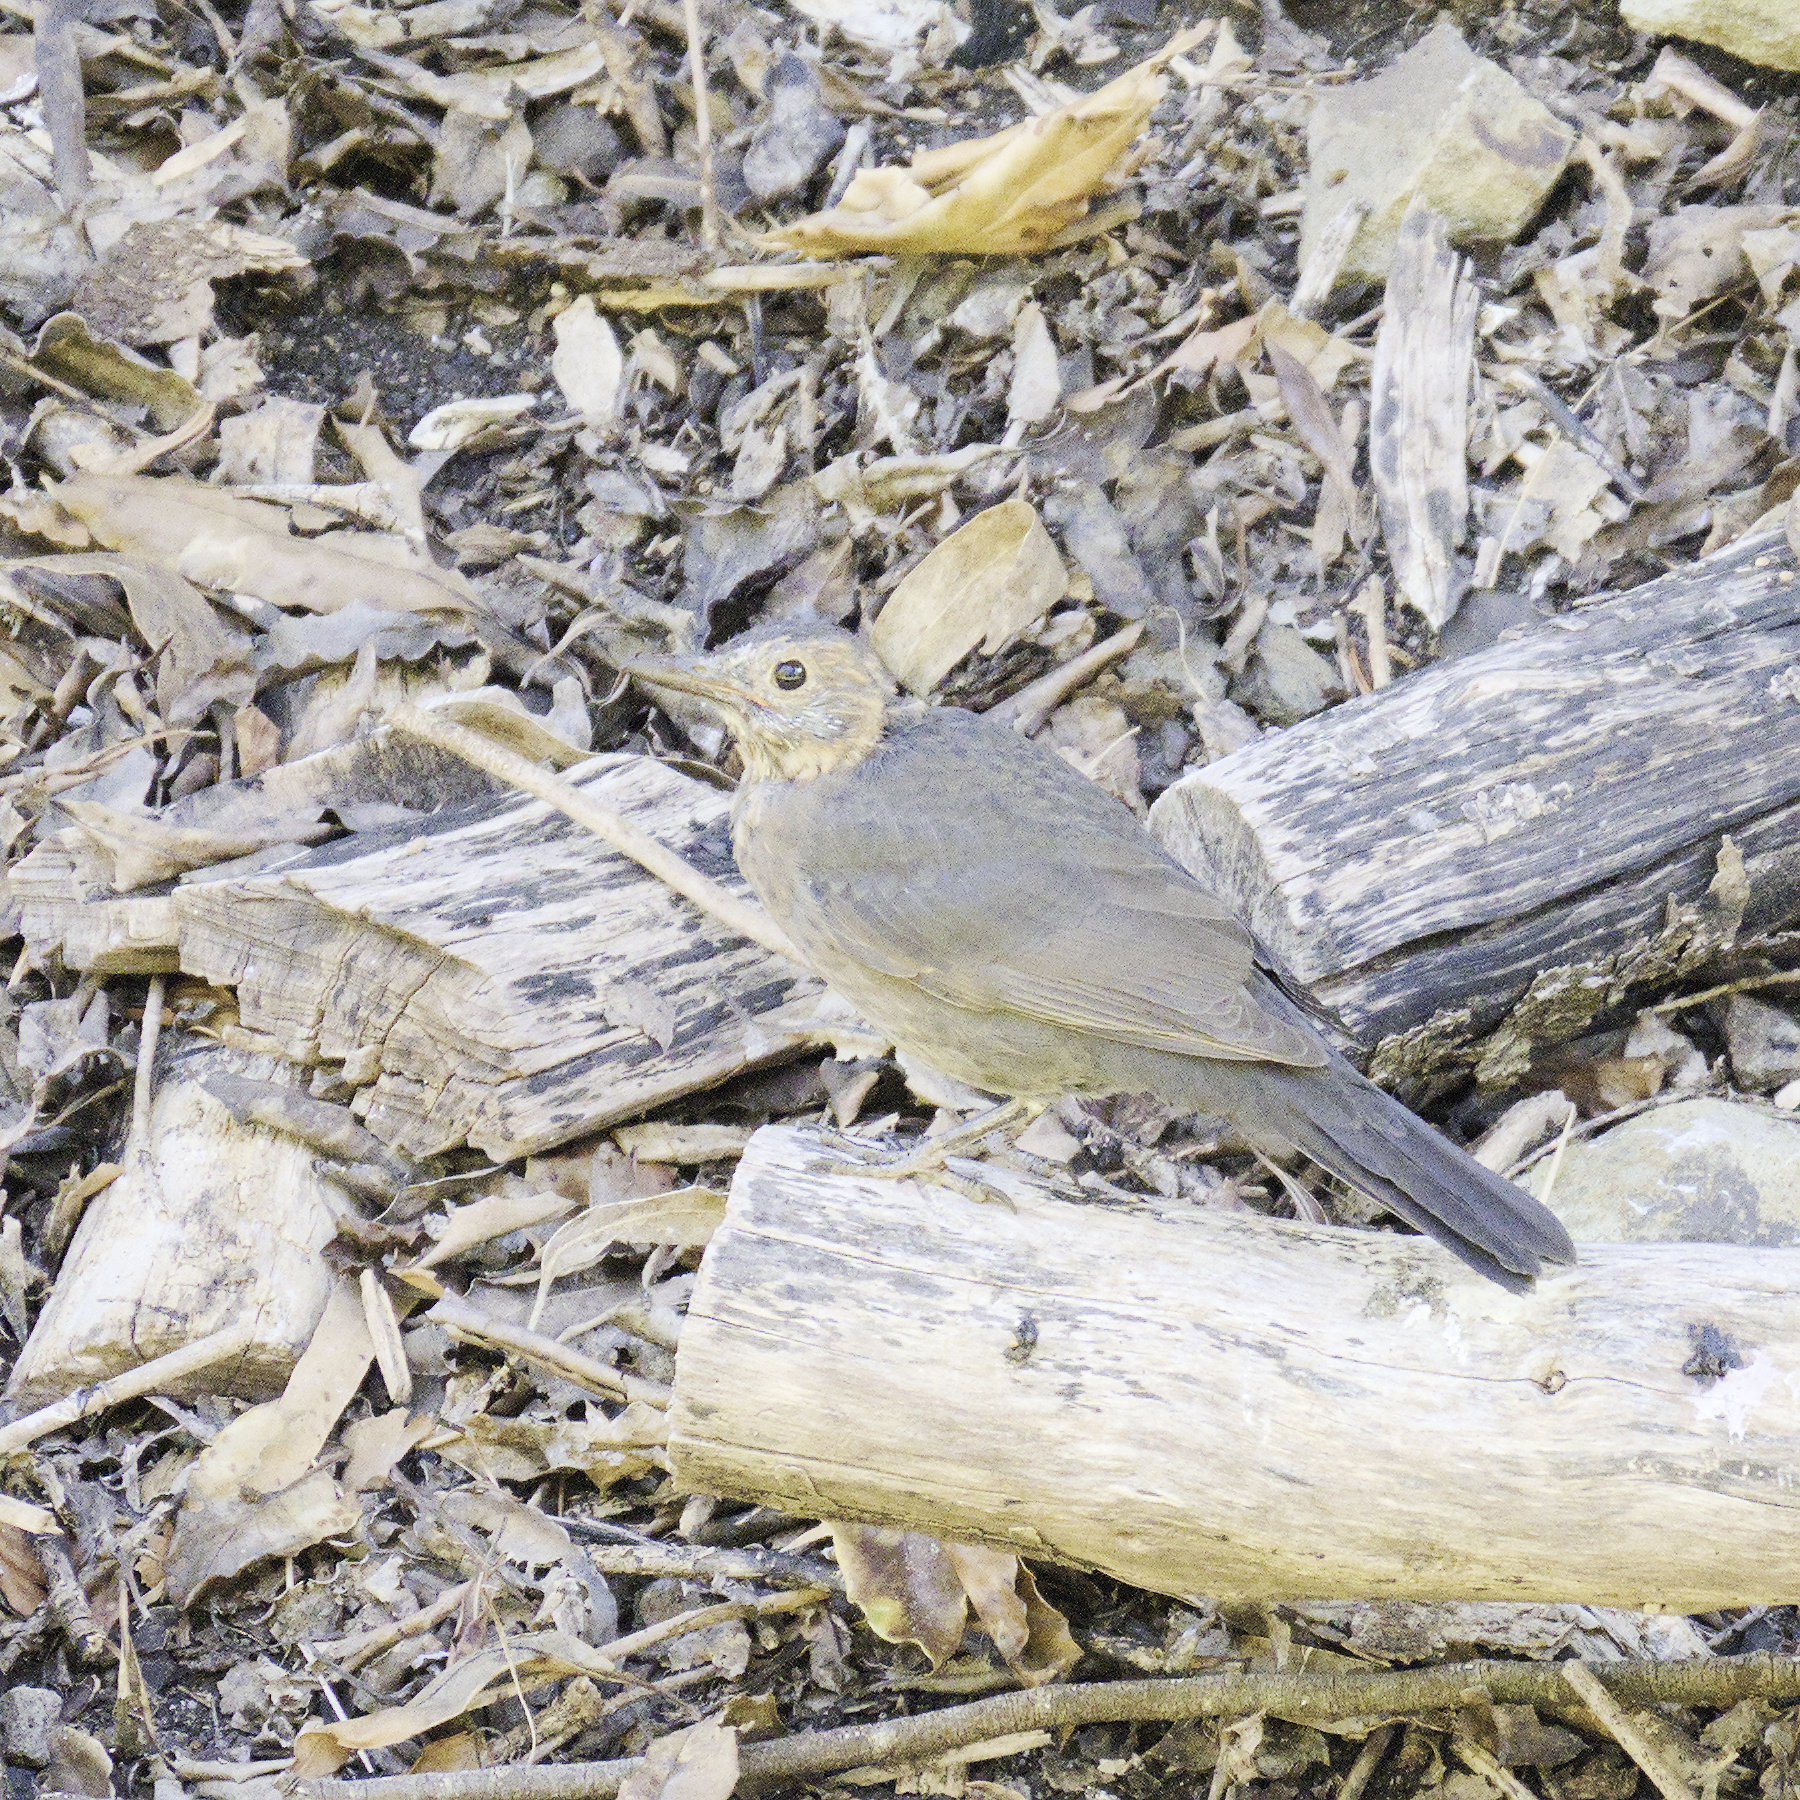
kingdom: Animalia
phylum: Chordata
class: Aves
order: Passeriformes
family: Turdidae
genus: Turdus
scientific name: Turdus merula
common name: Common blackbird
